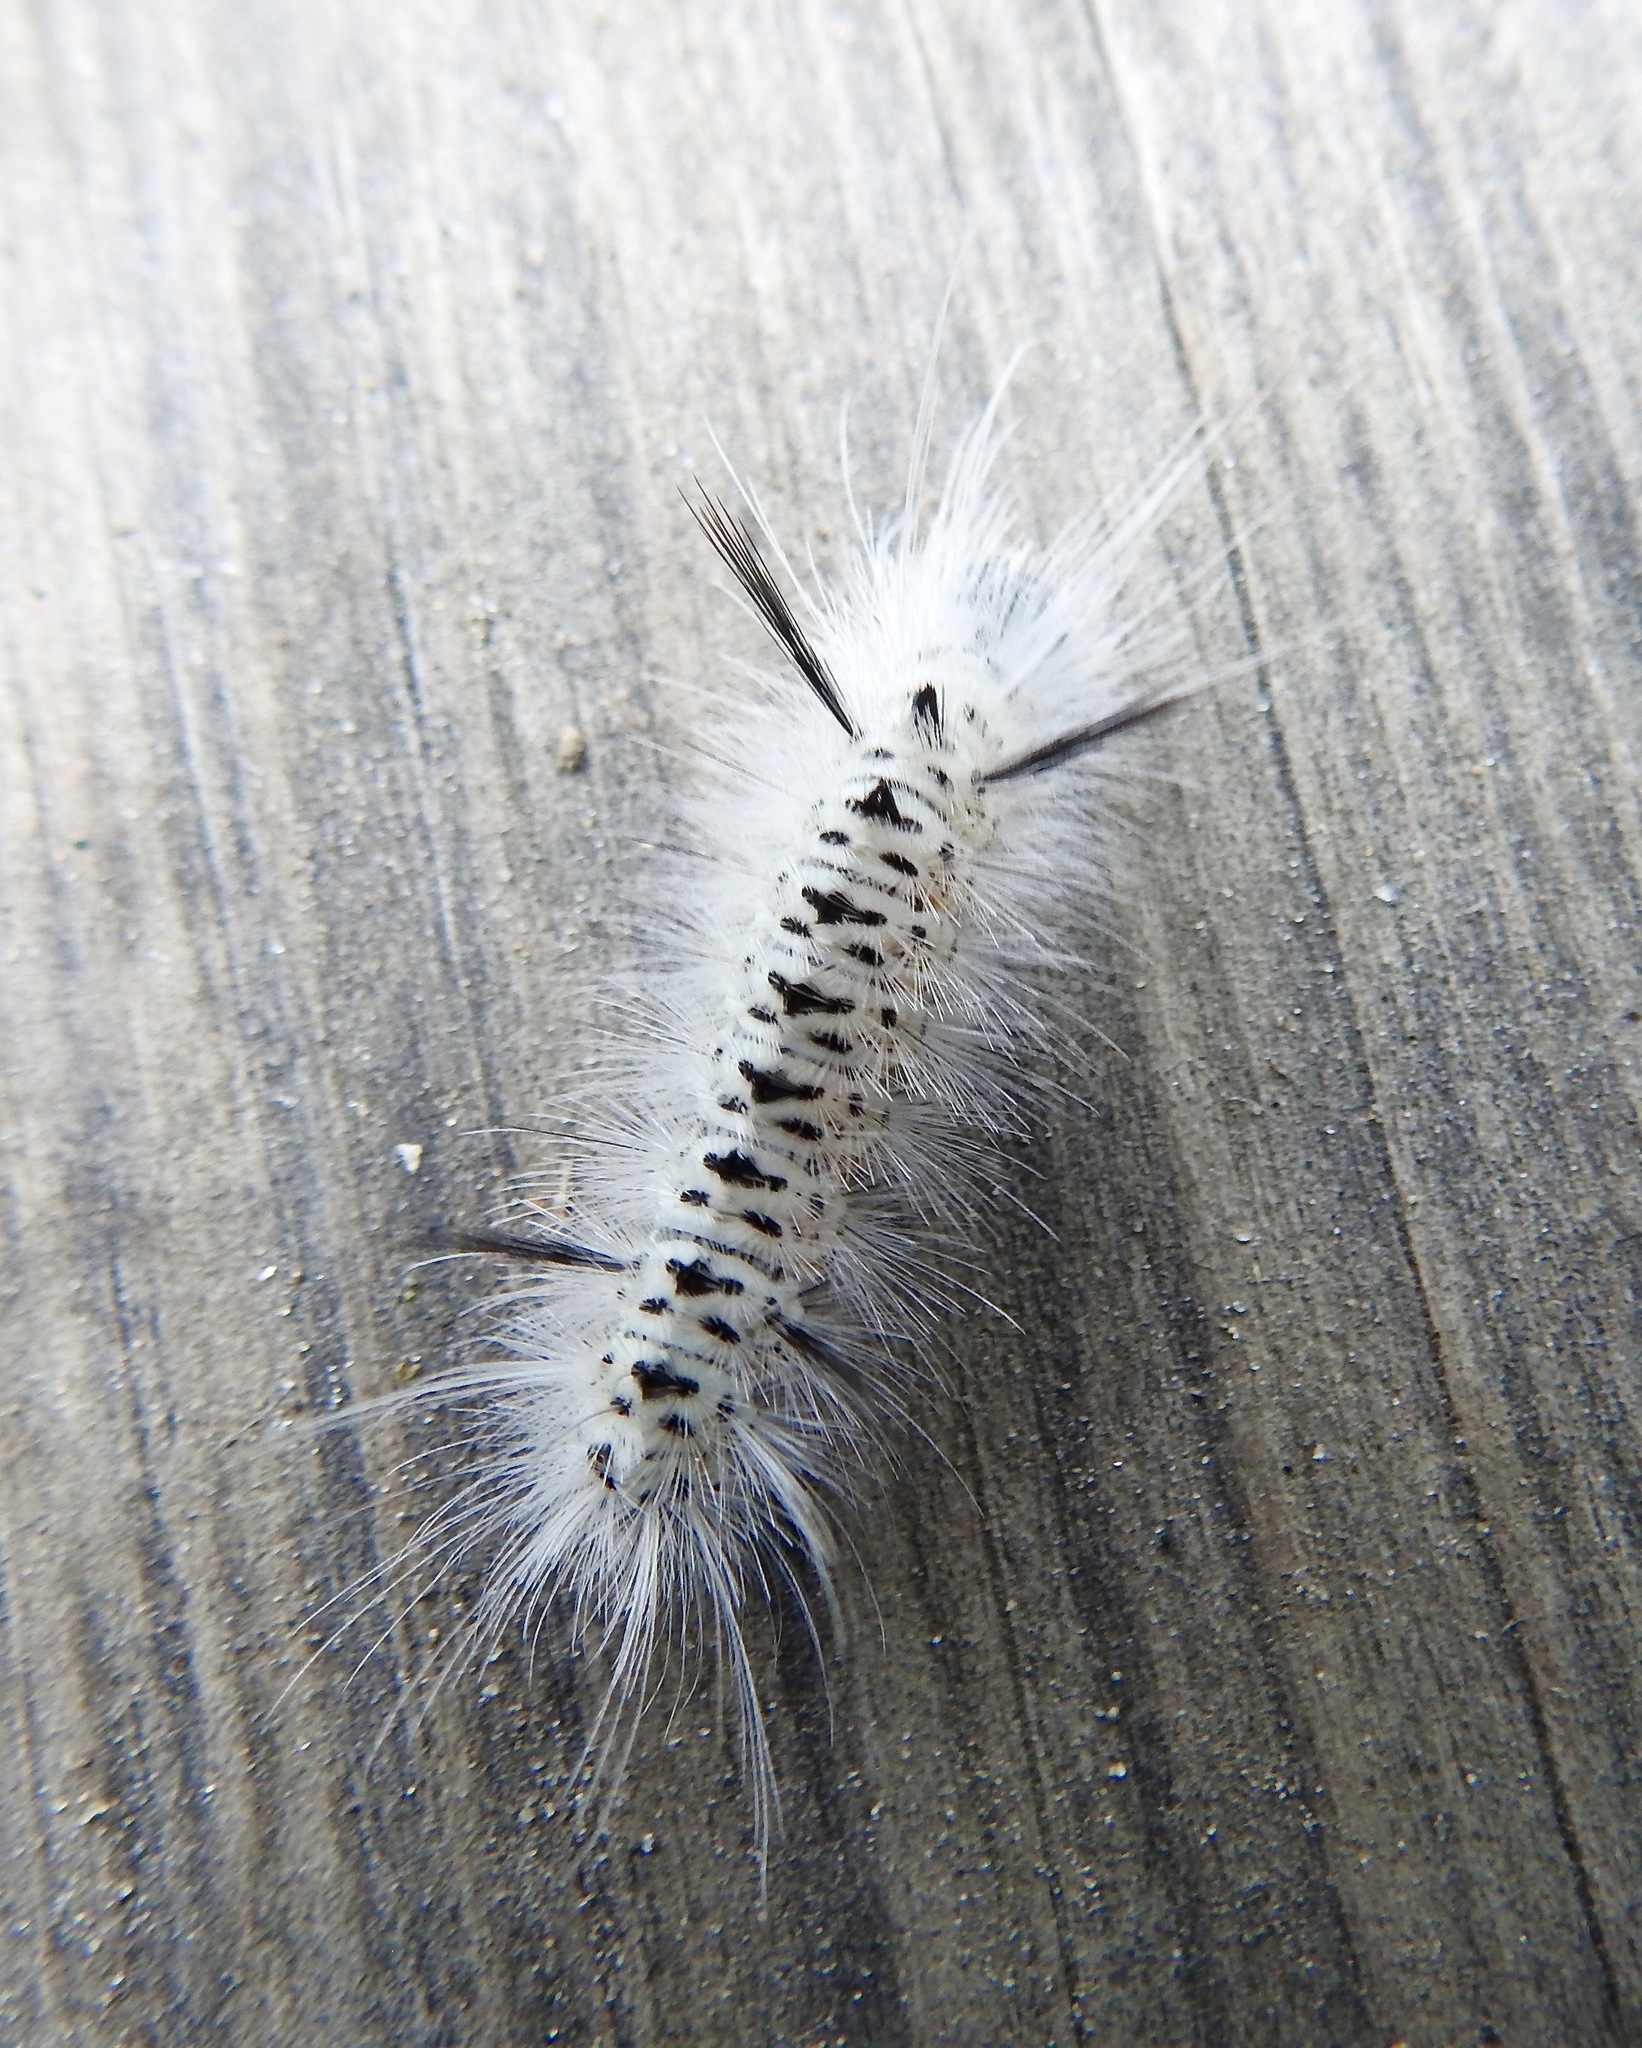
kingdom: Animalia
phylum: Arthropoda
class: Insecta
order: Lepidoptera
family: Erebidae
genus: Lophocampa
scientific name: Lophocampa caryae
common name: Hickory tussock moth
